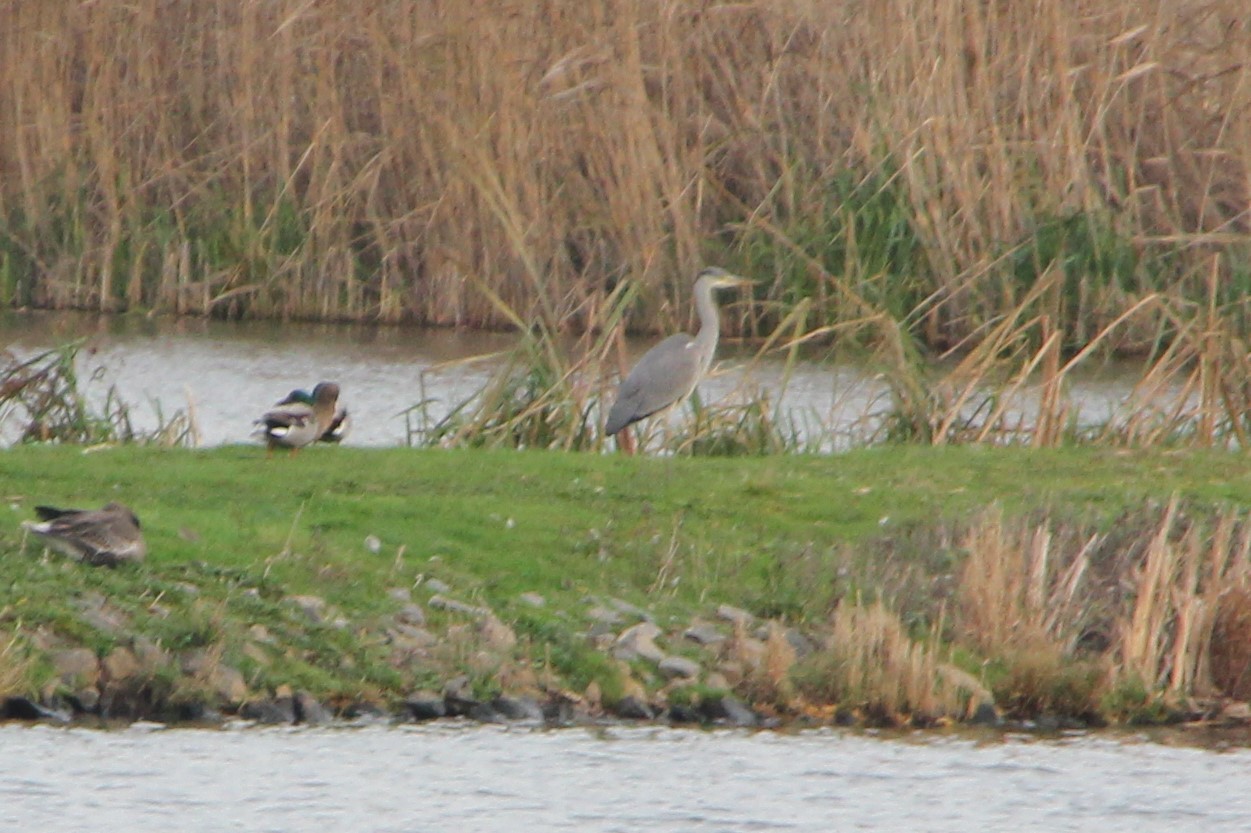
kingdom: Animalia
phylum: Chordata
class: Aves
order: Pelecaniformes
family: Ardeidae
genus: Ardea
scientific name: Ardea cinerea
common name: Grey heron
